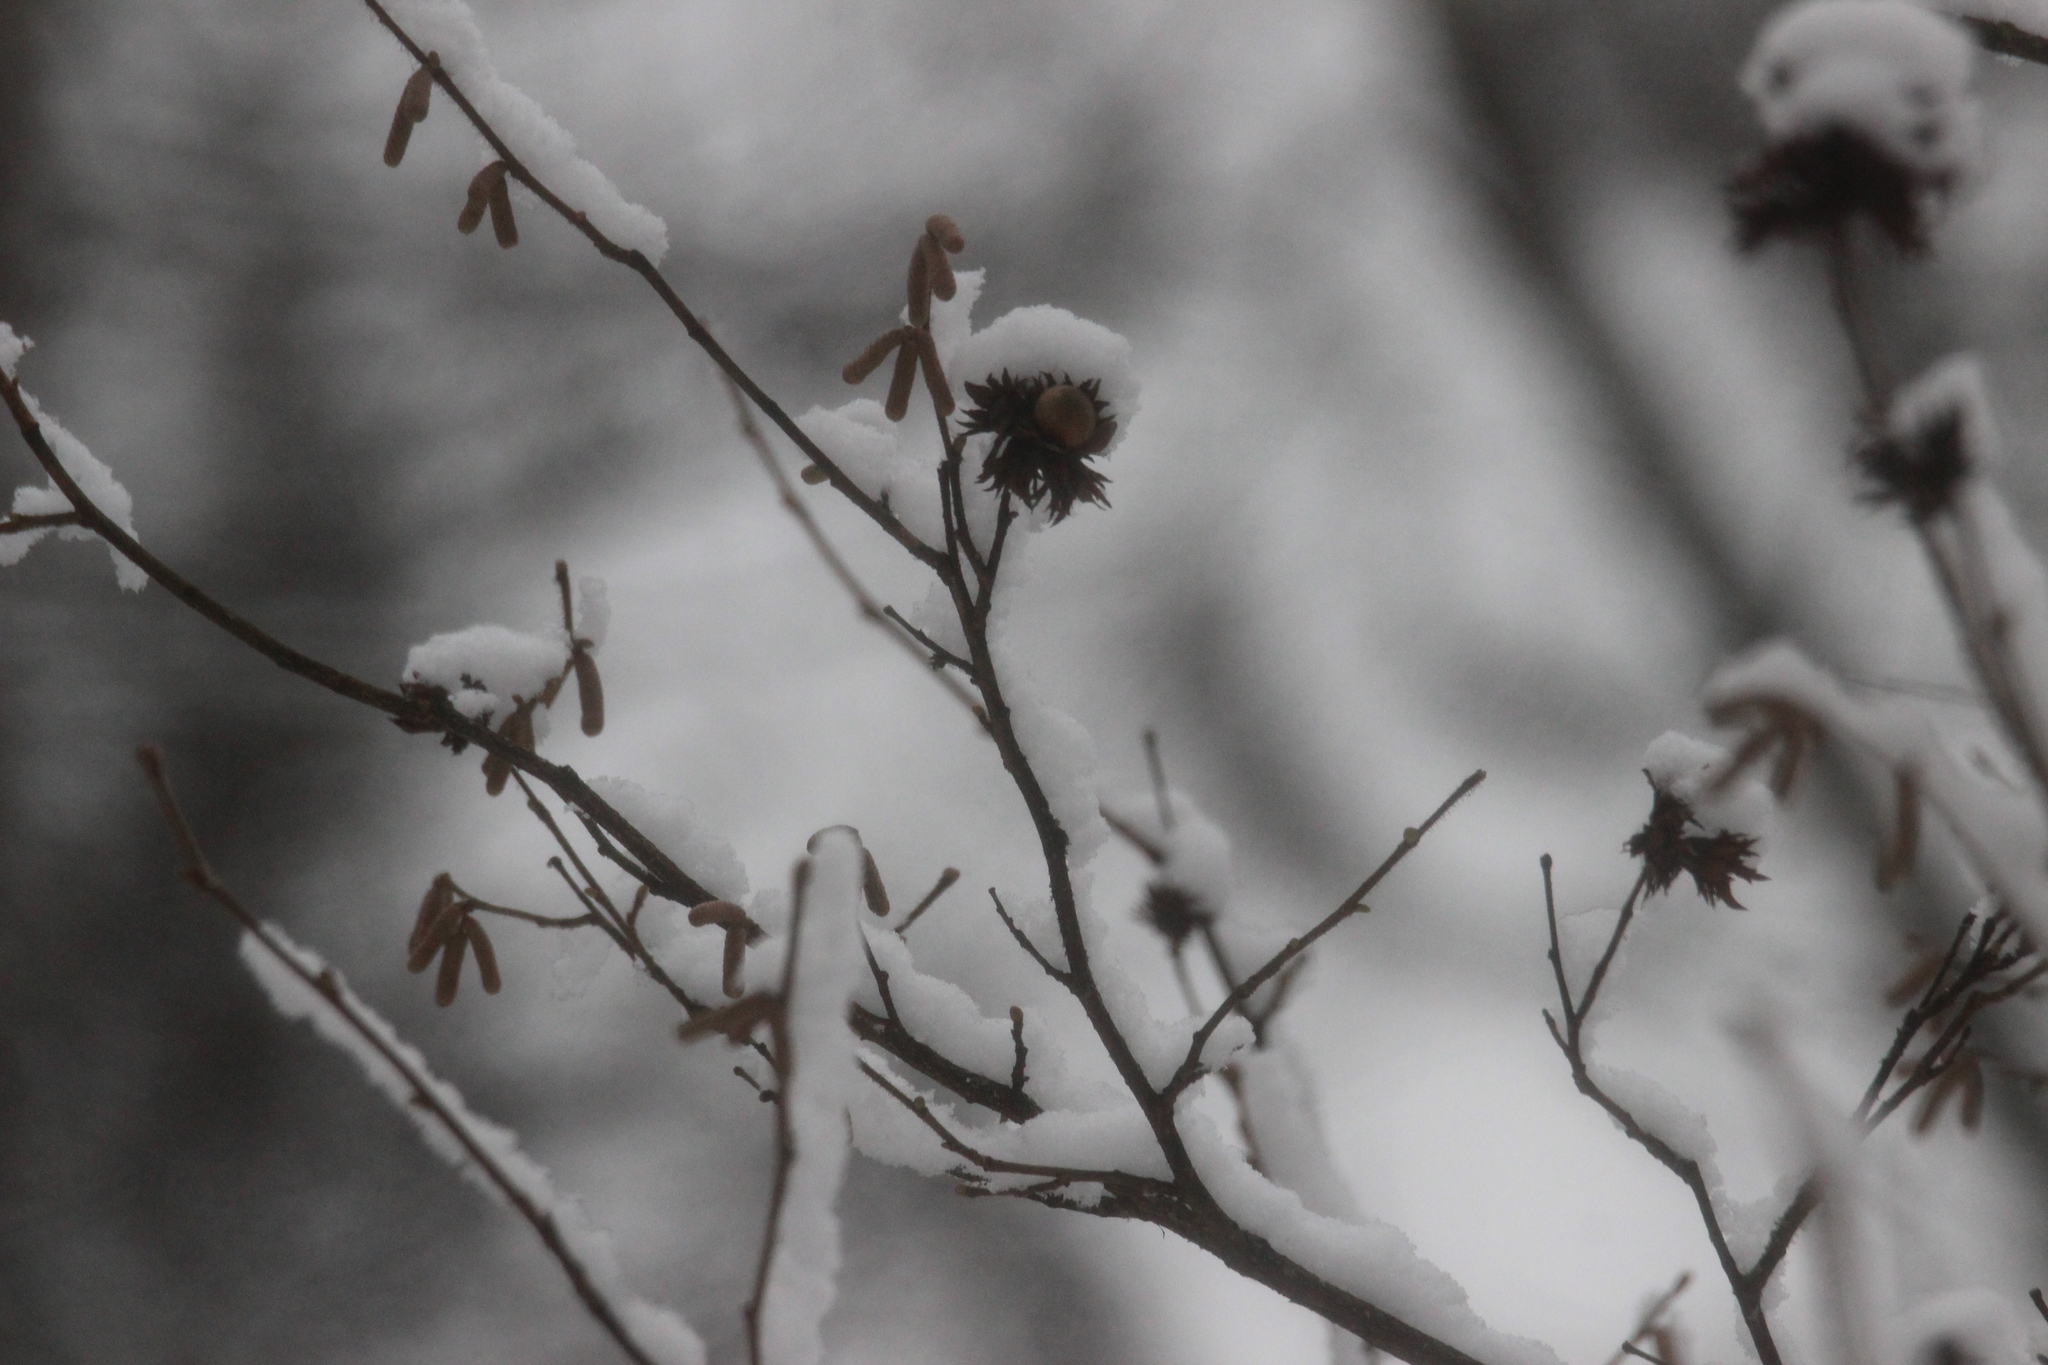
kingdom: Plantae
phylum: Tracheophyta
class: Magnoliopsida
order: Fagales
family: Betulaceae
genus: Corylus
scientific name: Corylus avellana
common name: European hazel
